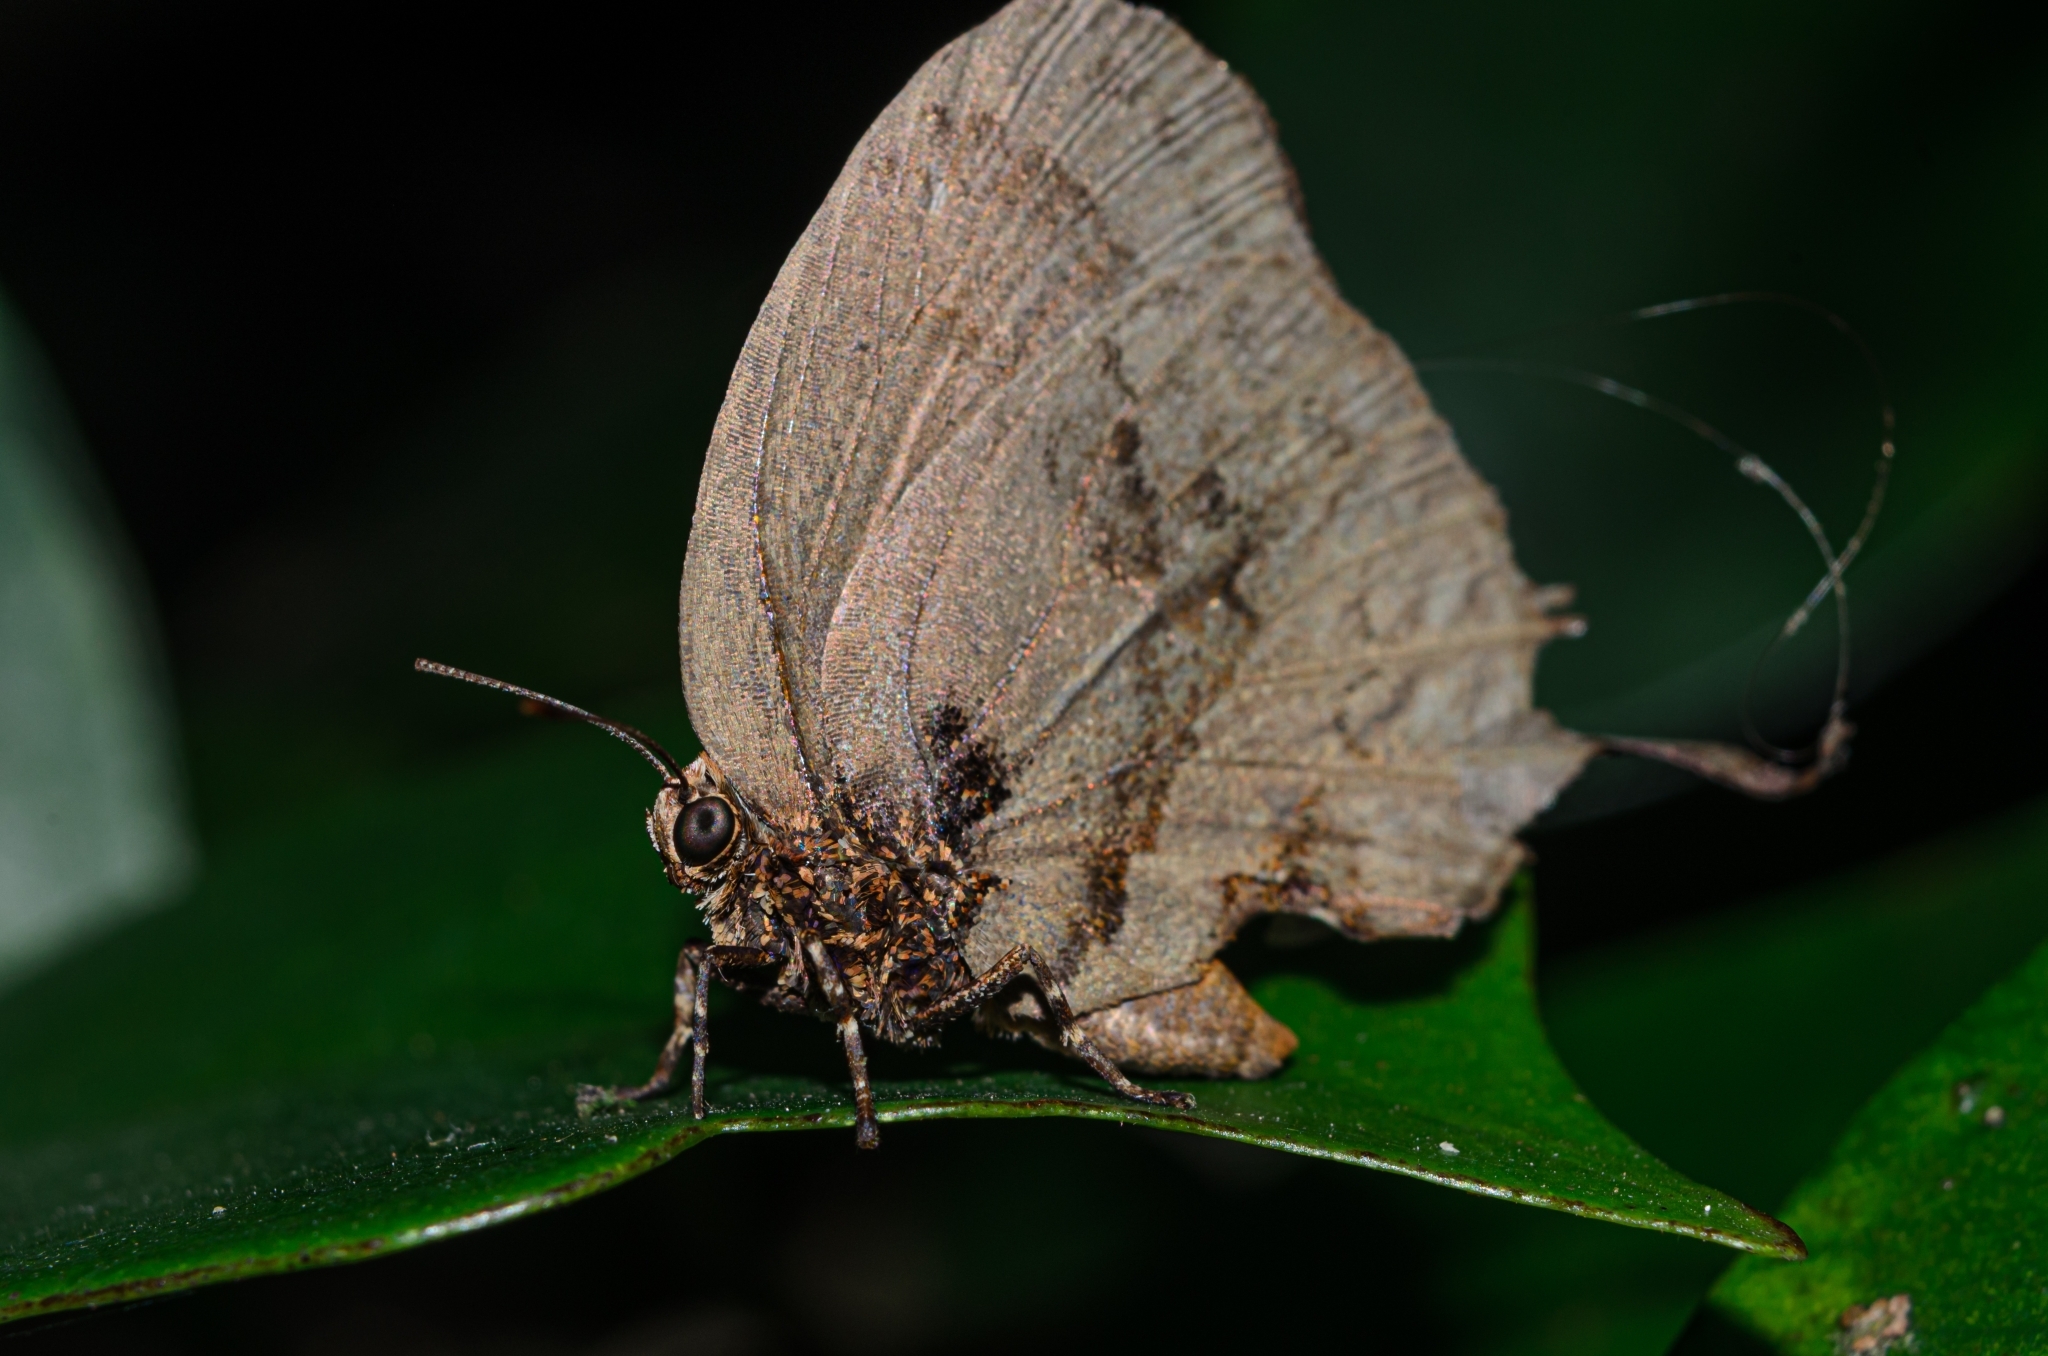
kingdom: Animalia
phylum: Arthropoda
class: Insecta
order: Lepidoptera
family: Lycaenidae
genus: Evenus
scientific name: Evenus
